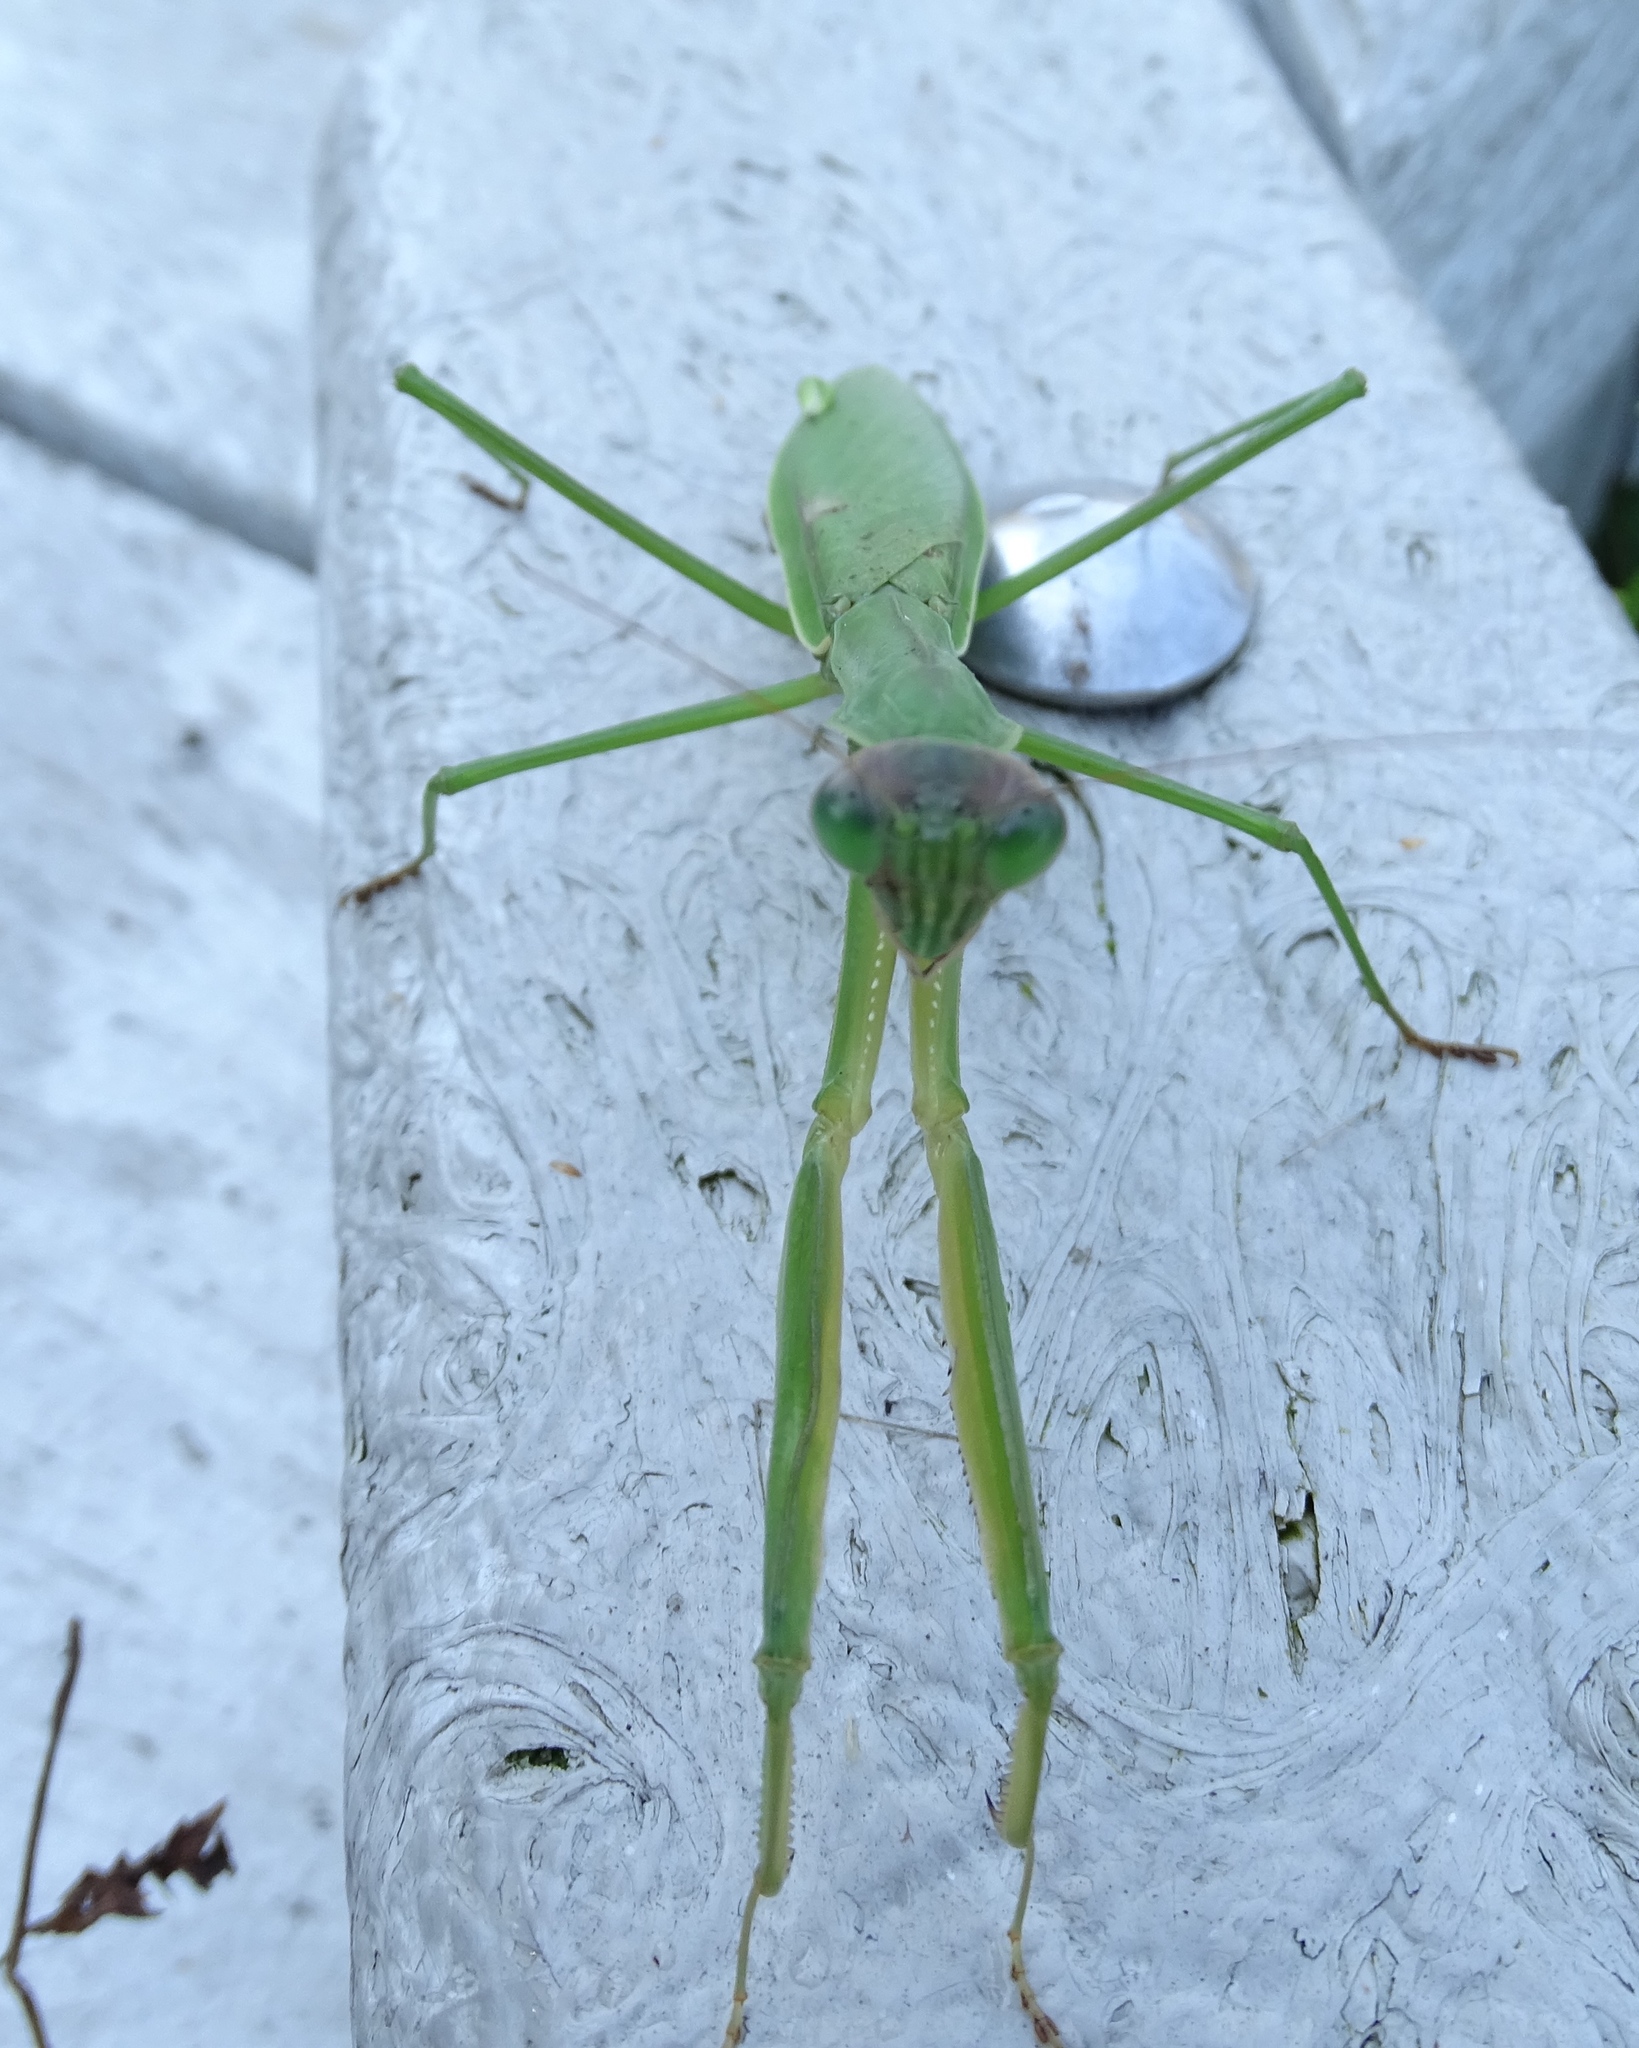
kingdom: Animalia
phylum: Arthropoda
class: Insecta
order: Mantodea
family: Mantidae
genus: Tenodera
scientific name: Tenodera sinensis
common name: Chinese mantis
